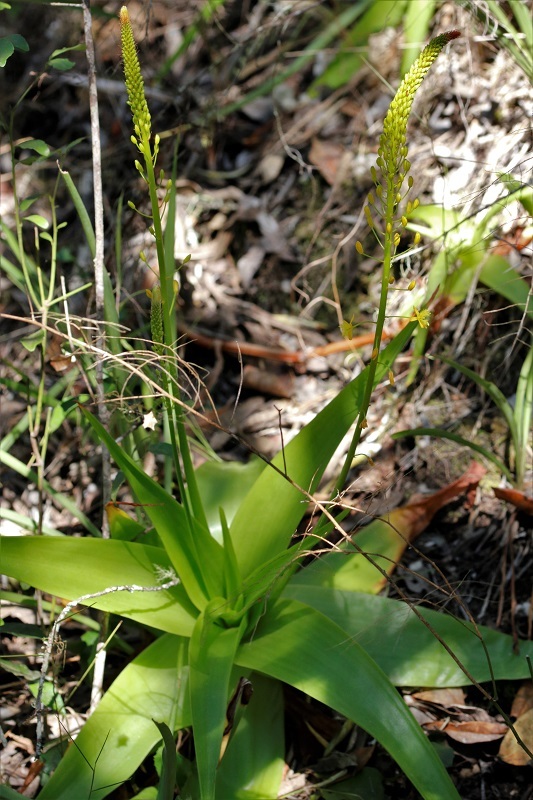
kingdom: Plantae
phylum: Tracheophyta
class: Liliopsida
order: Asparagales
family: Asphodelaceae
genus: Bulbine
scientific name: Bulbine latifolia
